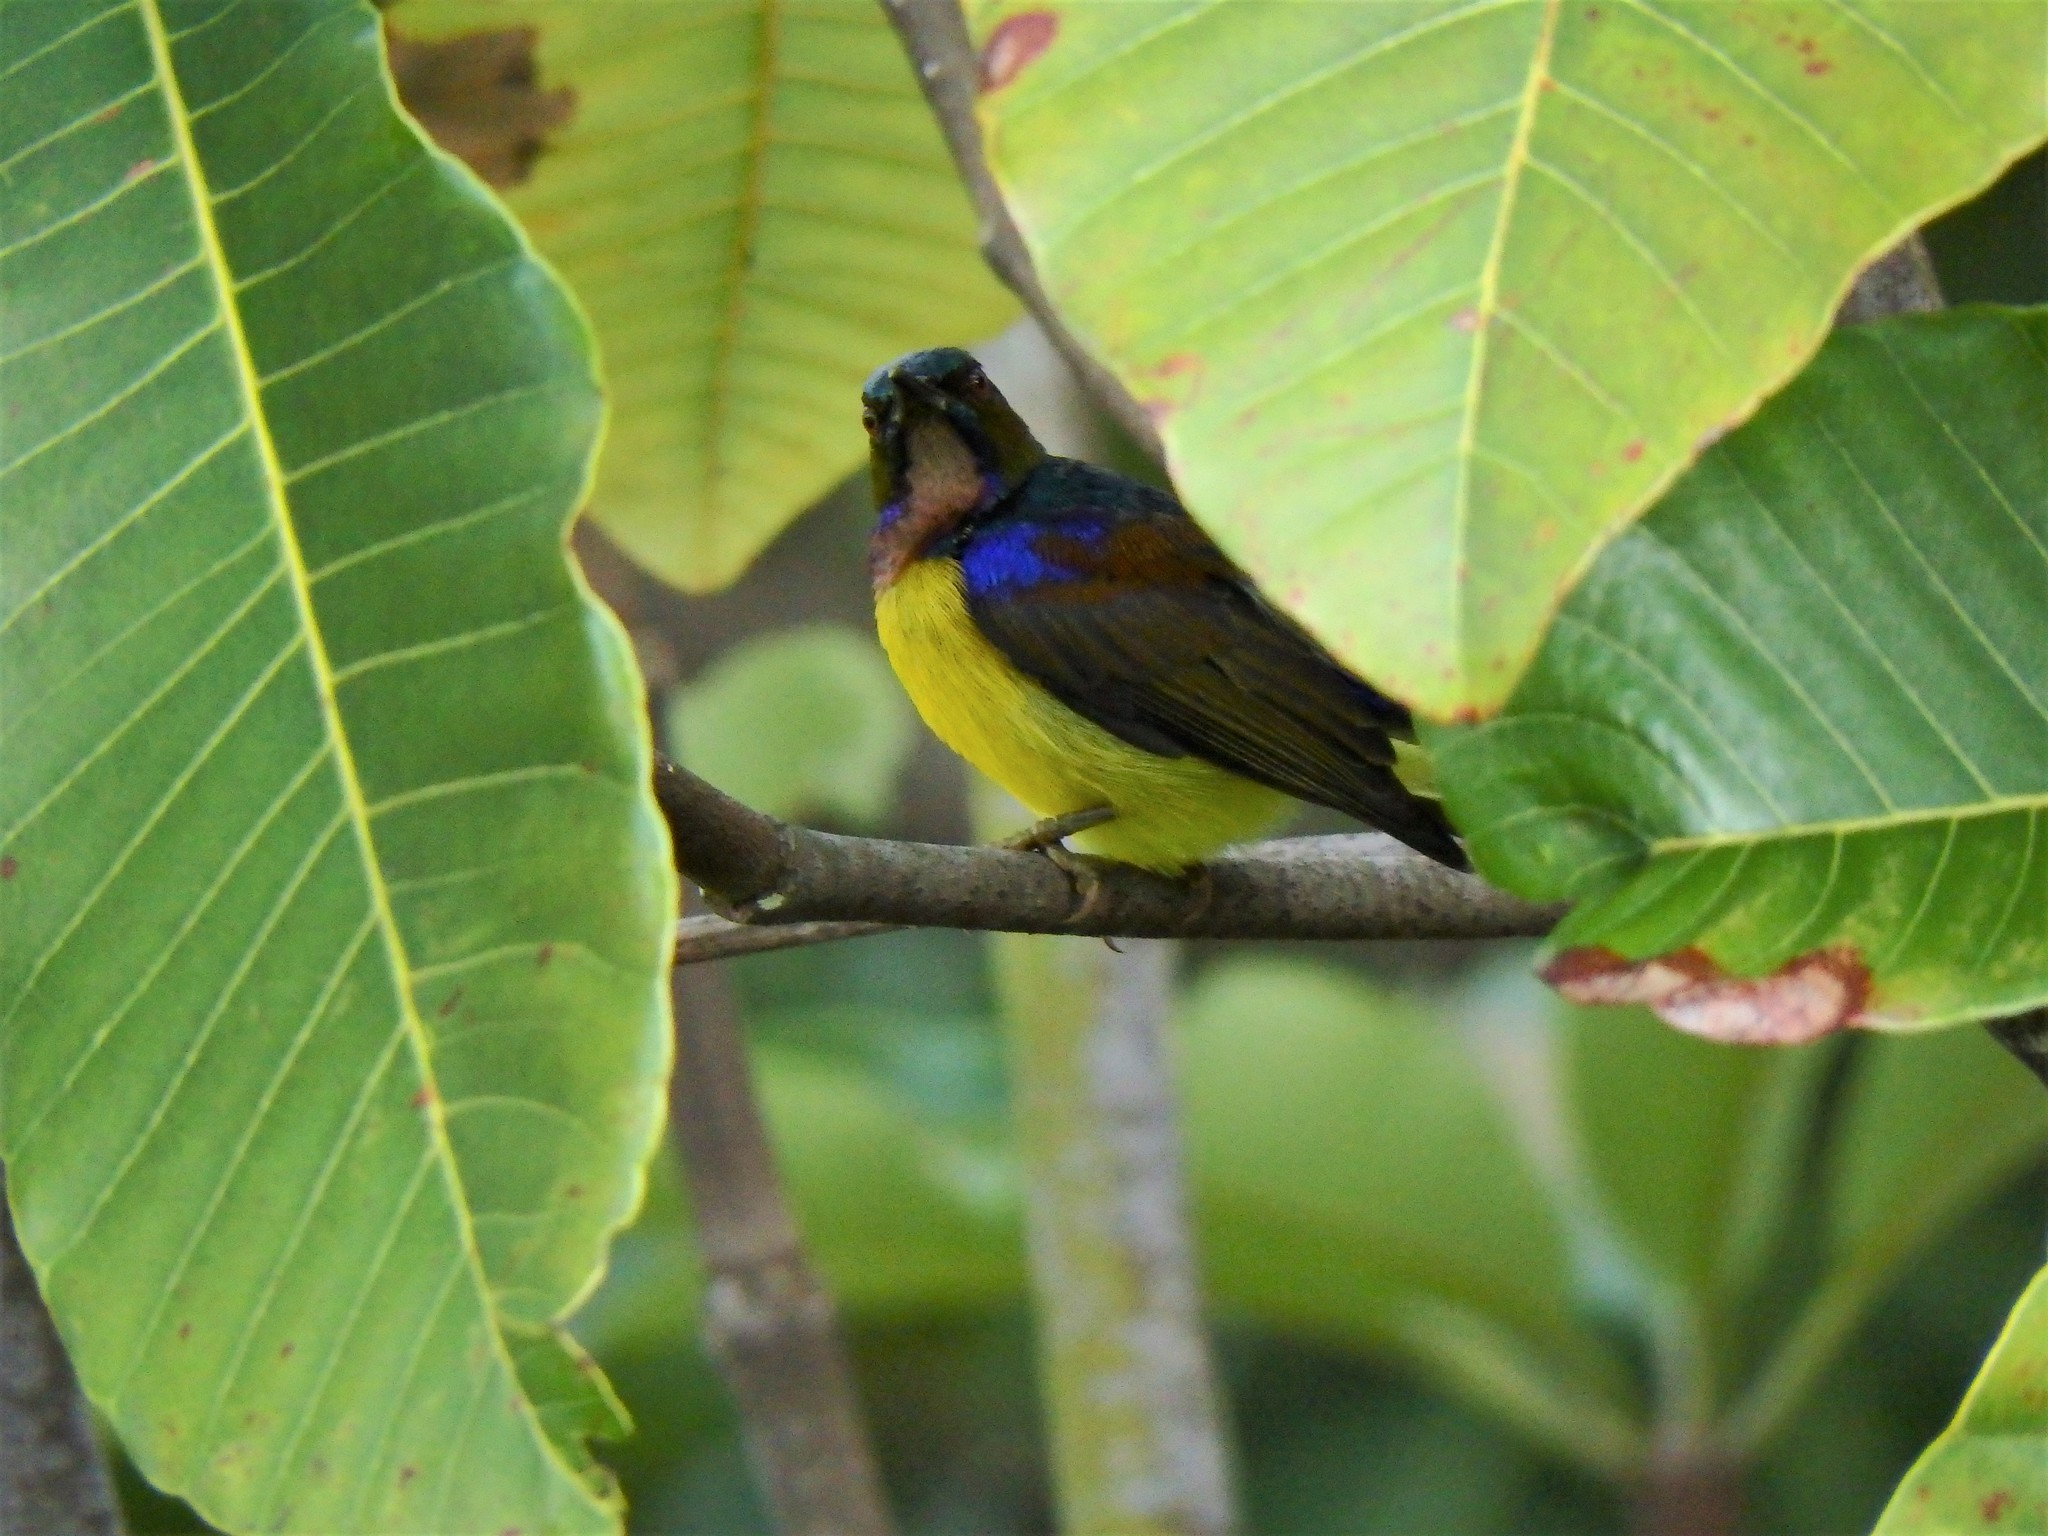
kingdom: Animalia
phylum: Chordata
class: Aves
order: Passeriformes
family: Nectariniidae
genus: Anthreptes
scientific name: Anthreptes malacensis
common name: Brown-throated sunbird
